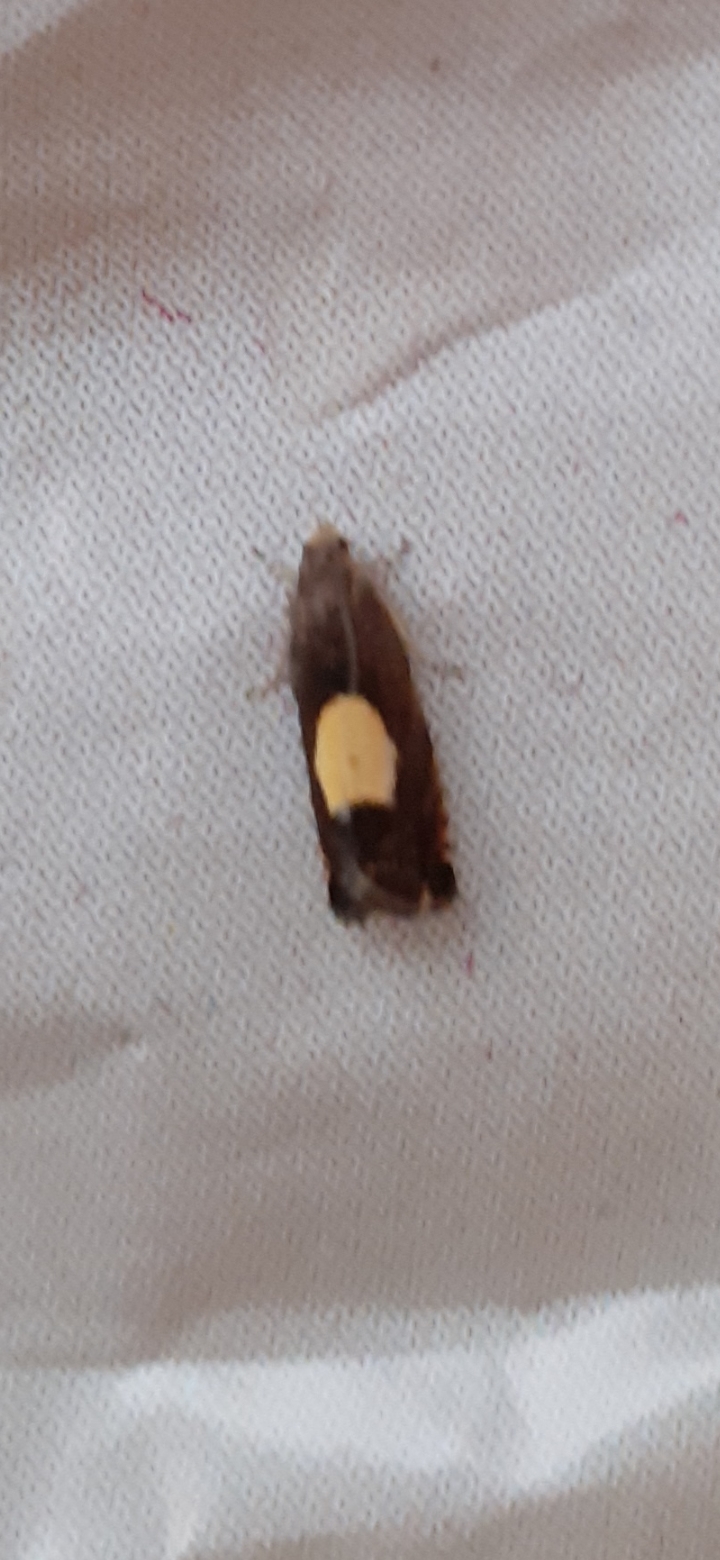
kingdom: Animalia
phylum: Arthropoda
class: Insecta
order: Lepidoptera
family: Tortricidae
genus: Pammene
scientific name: Pammene regiana
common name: Regal piercer
